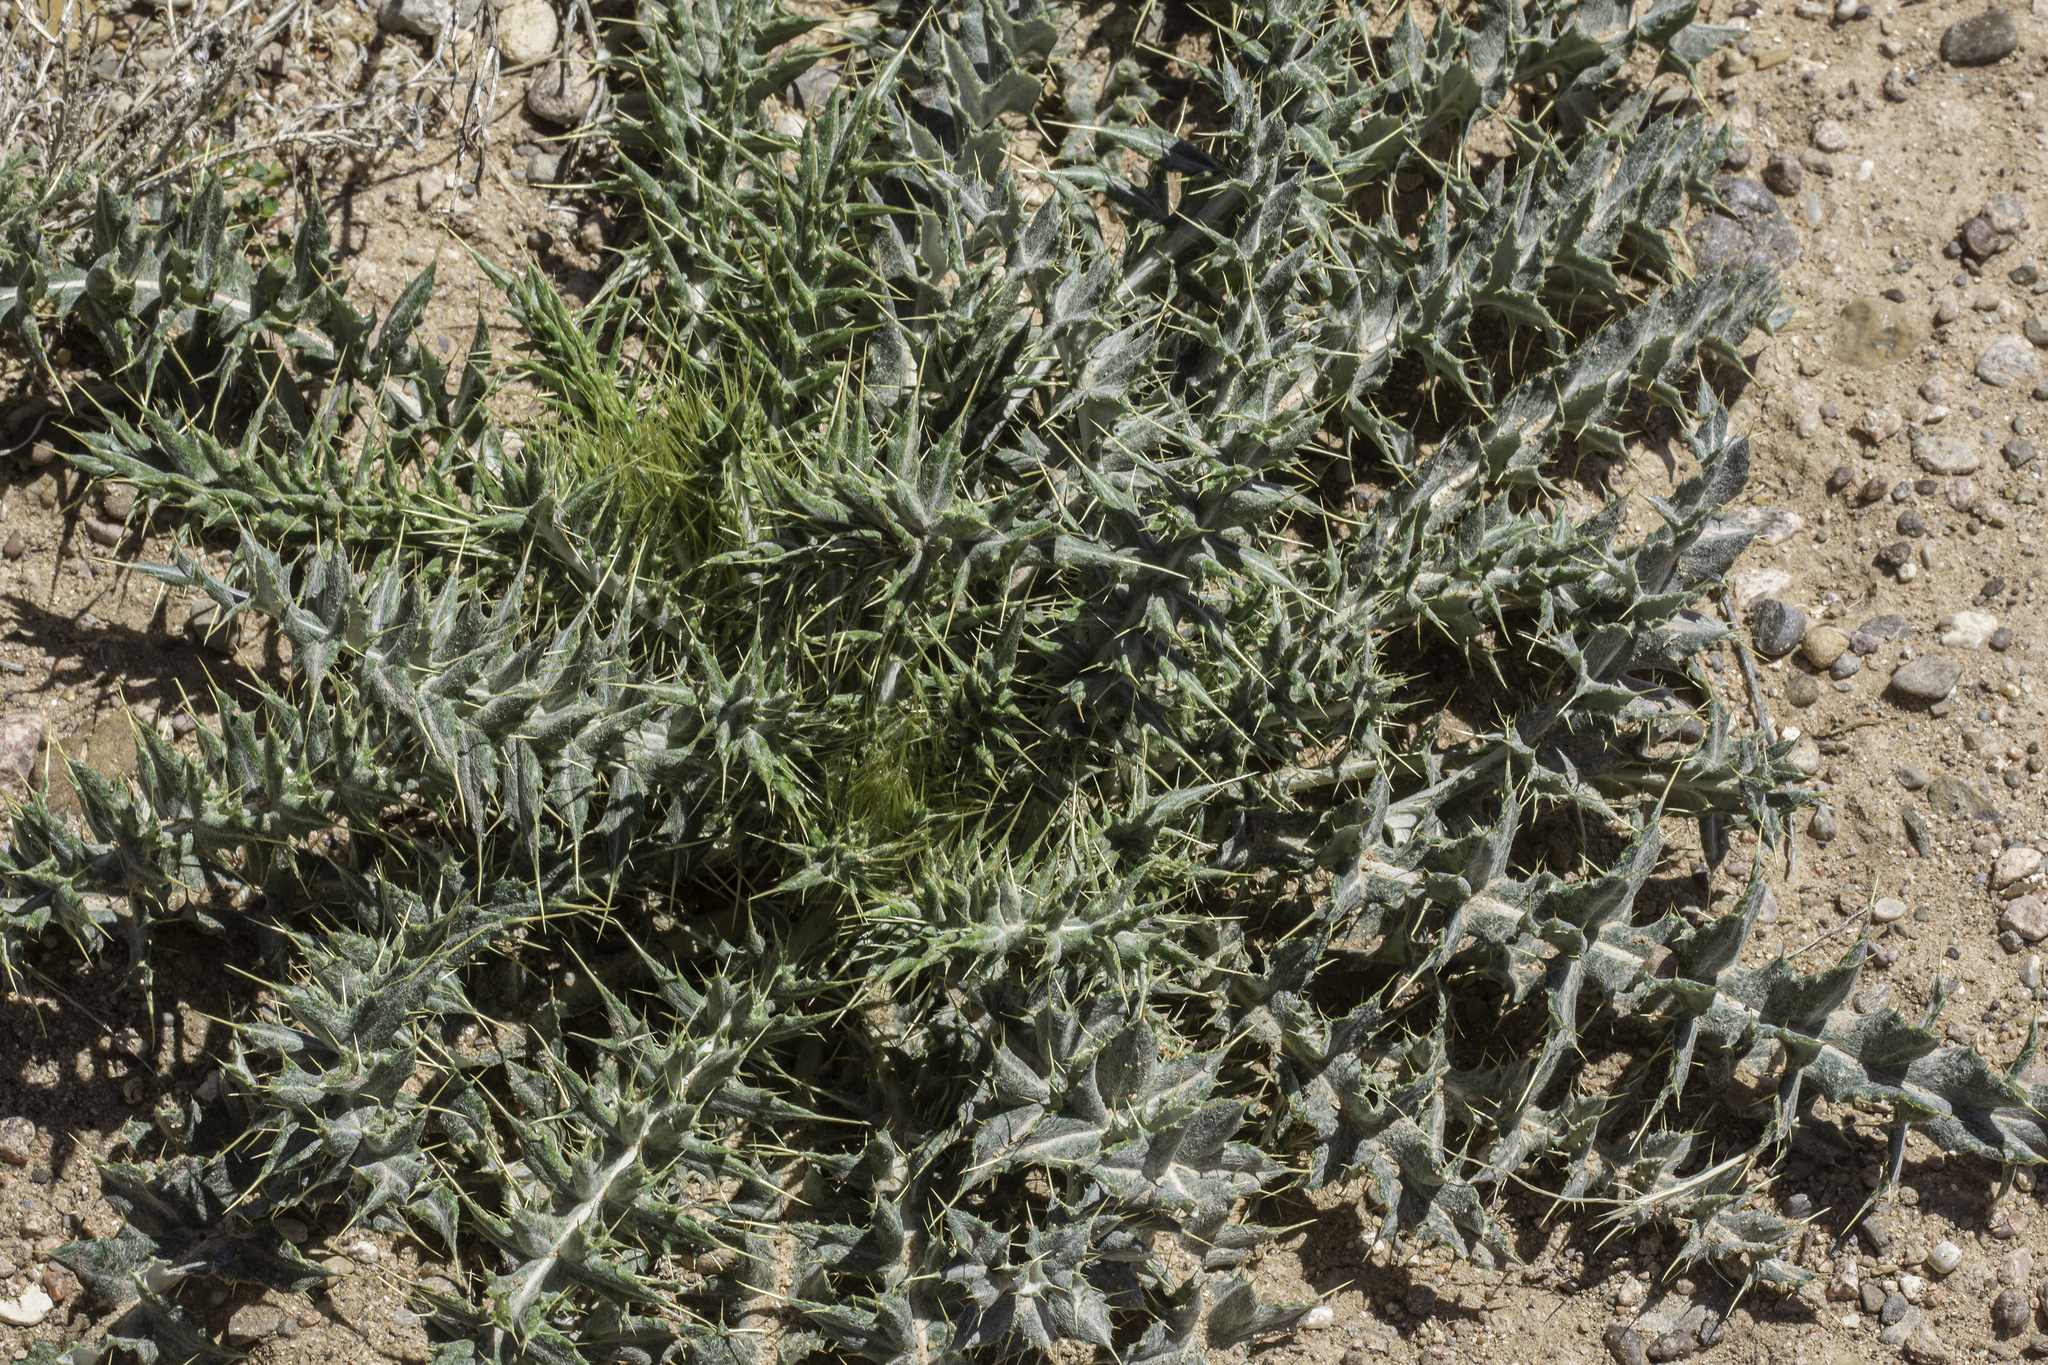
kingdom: Plantae
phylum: Tracheophyta
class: Magnoliopsida
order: Asterales
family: Asteraceae
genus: Cirsium
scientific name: Cirsium ochrocentrum
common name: Yellow-spine thistle
